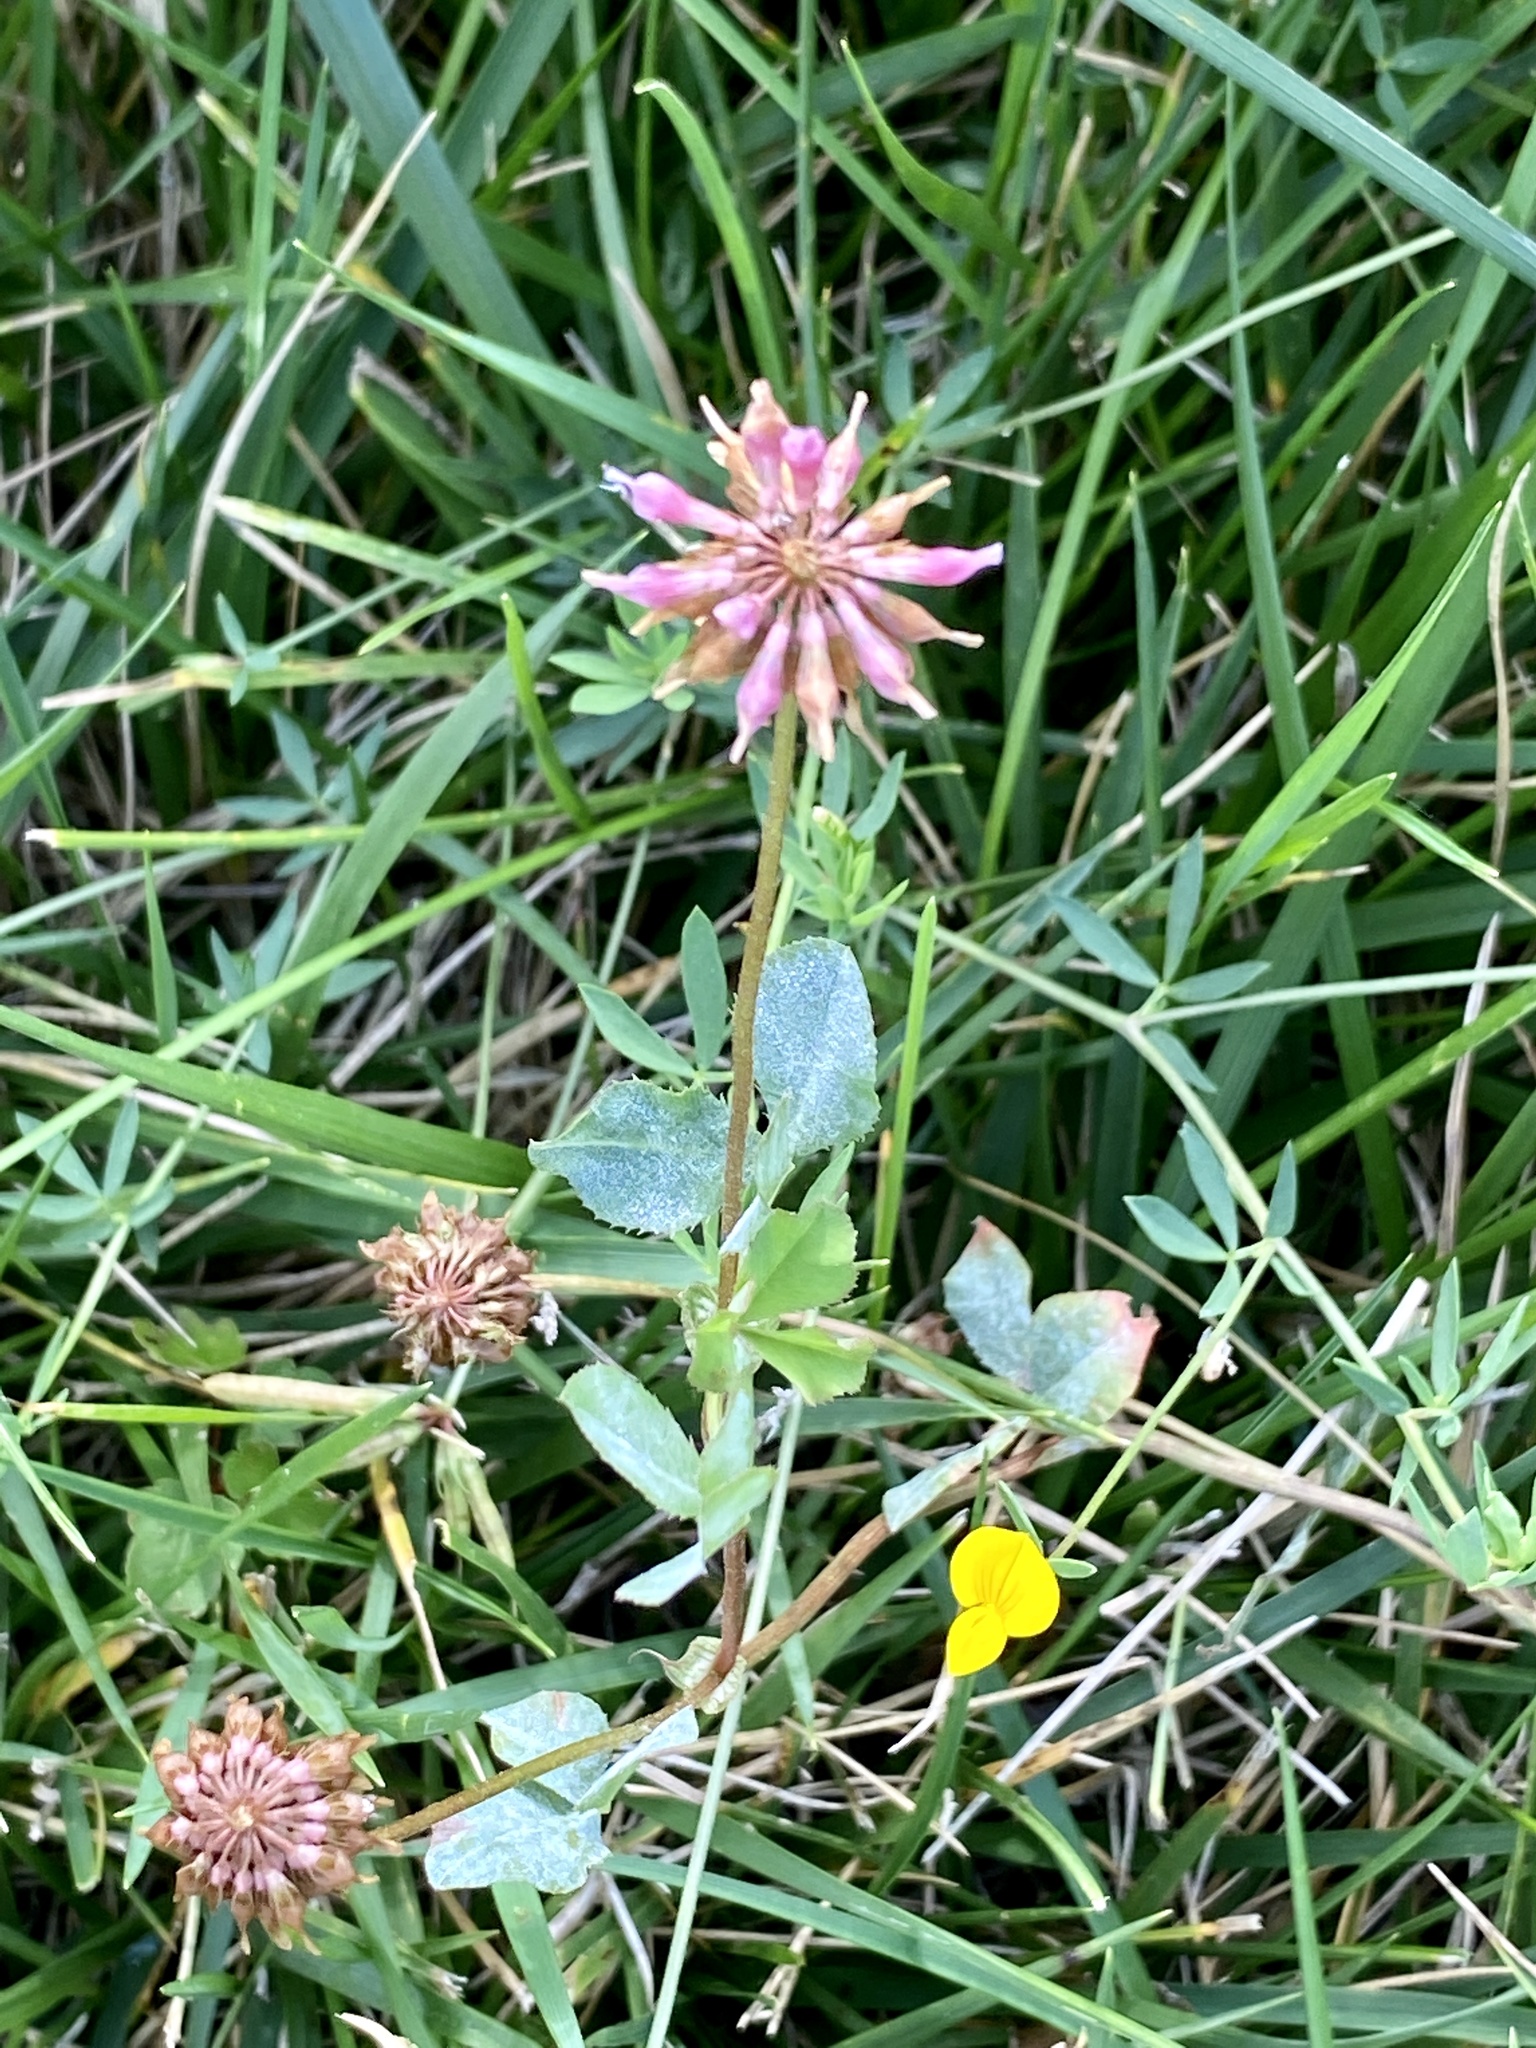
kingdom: Plantae
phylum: Tracheophyta
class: Magnoliopsida
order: Fabales
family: Fabaceae
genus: Trifolium
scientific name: Trifolium hybridum
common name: Alsike clover
